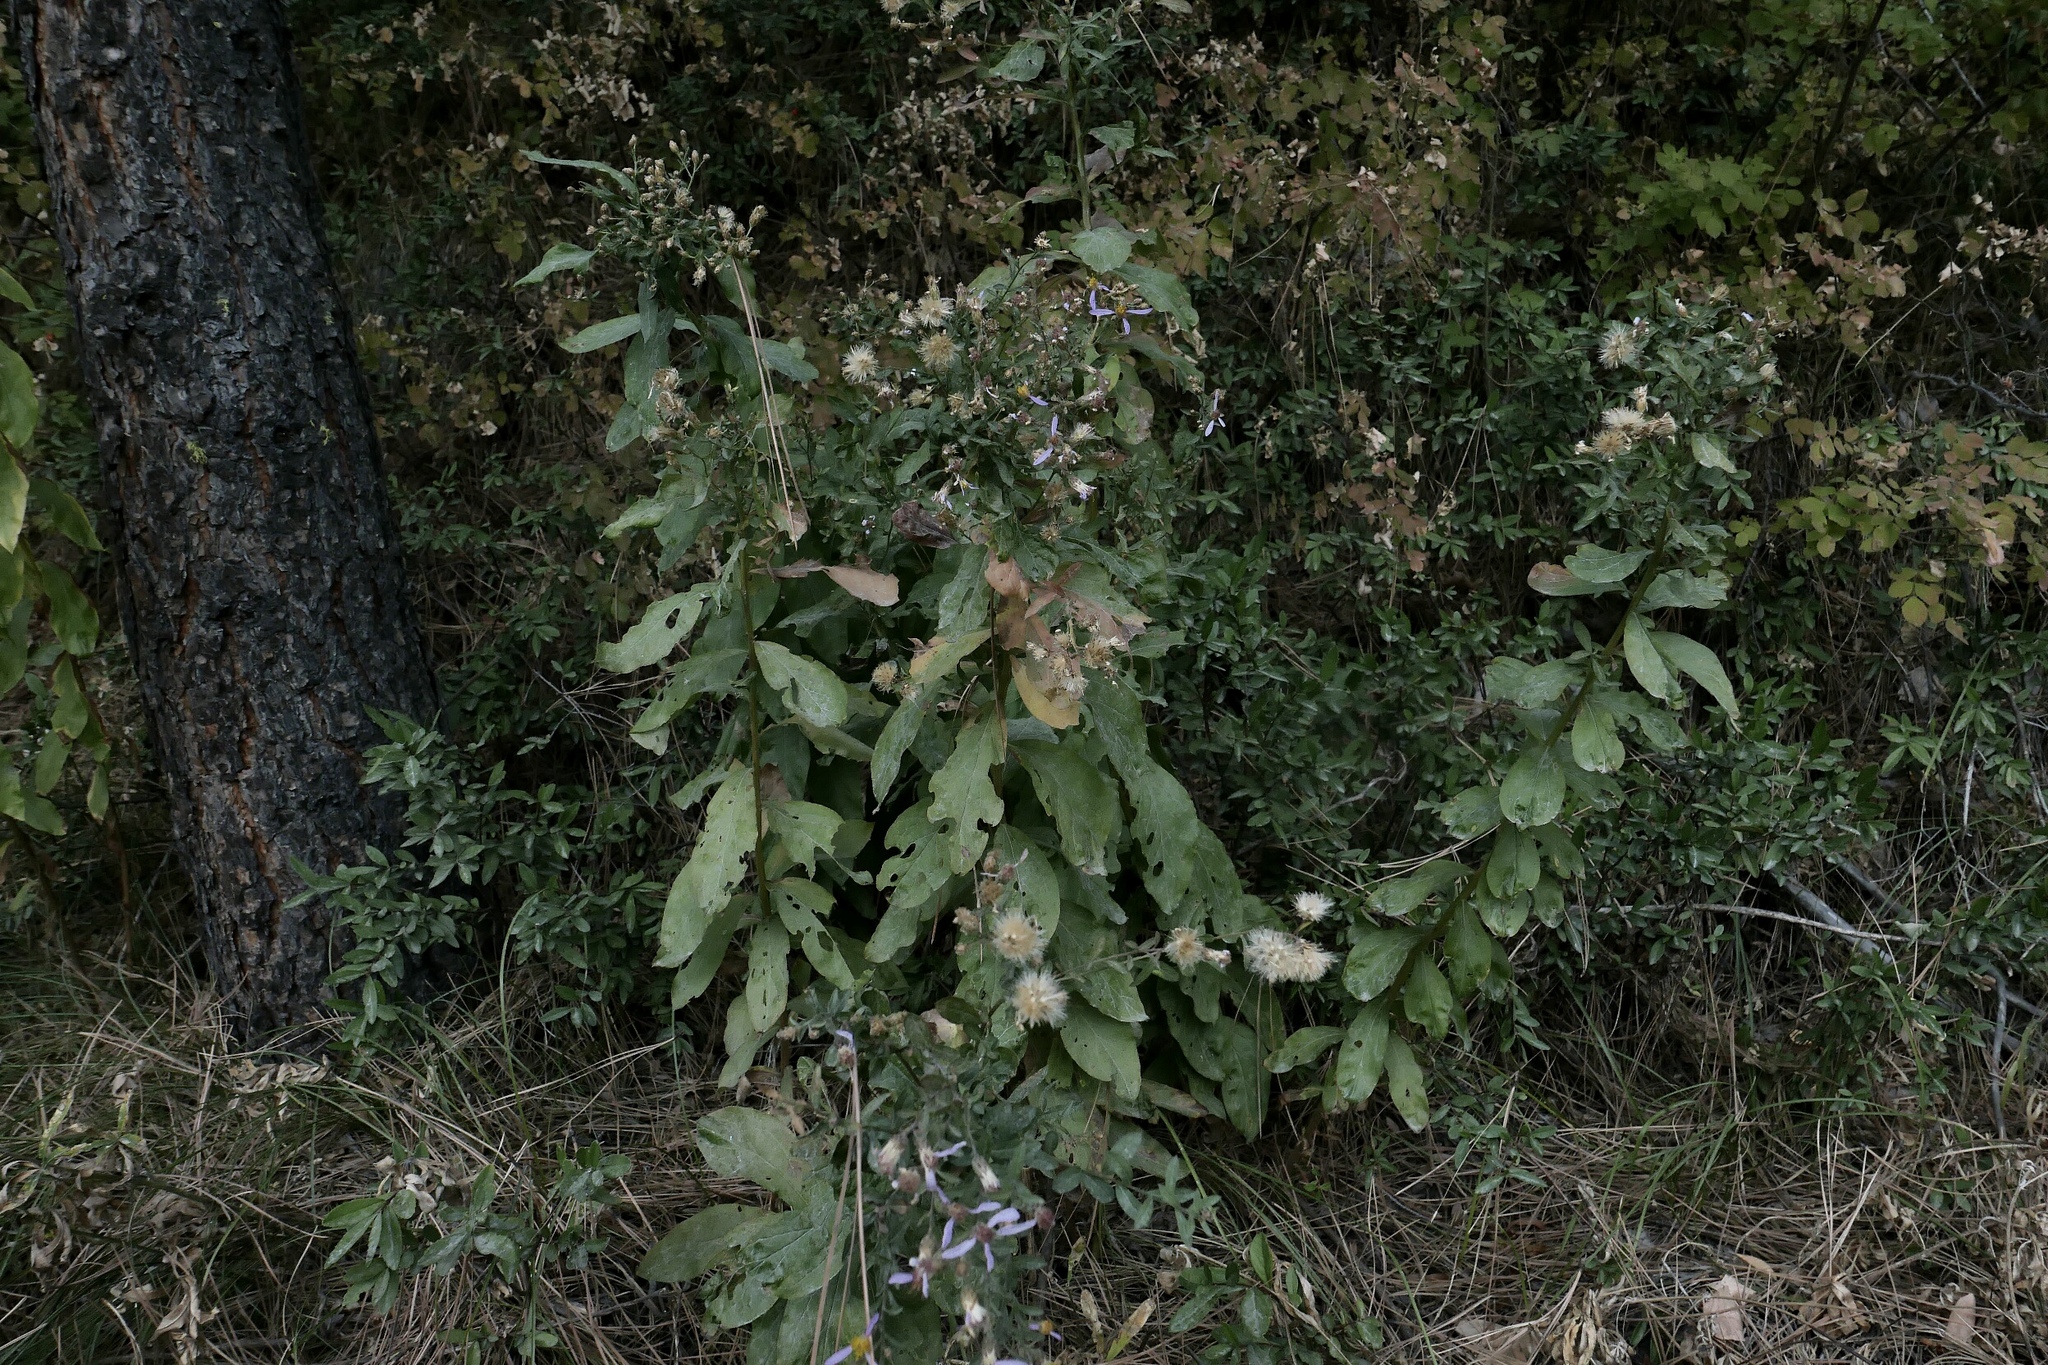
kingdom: Plantae
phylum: Tracheophyta
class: Magnoliopsida
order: Asterales
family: Asteraceae
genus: Eucephalus
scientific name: Eucephalus engelmannii
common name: Engelmann's aster
